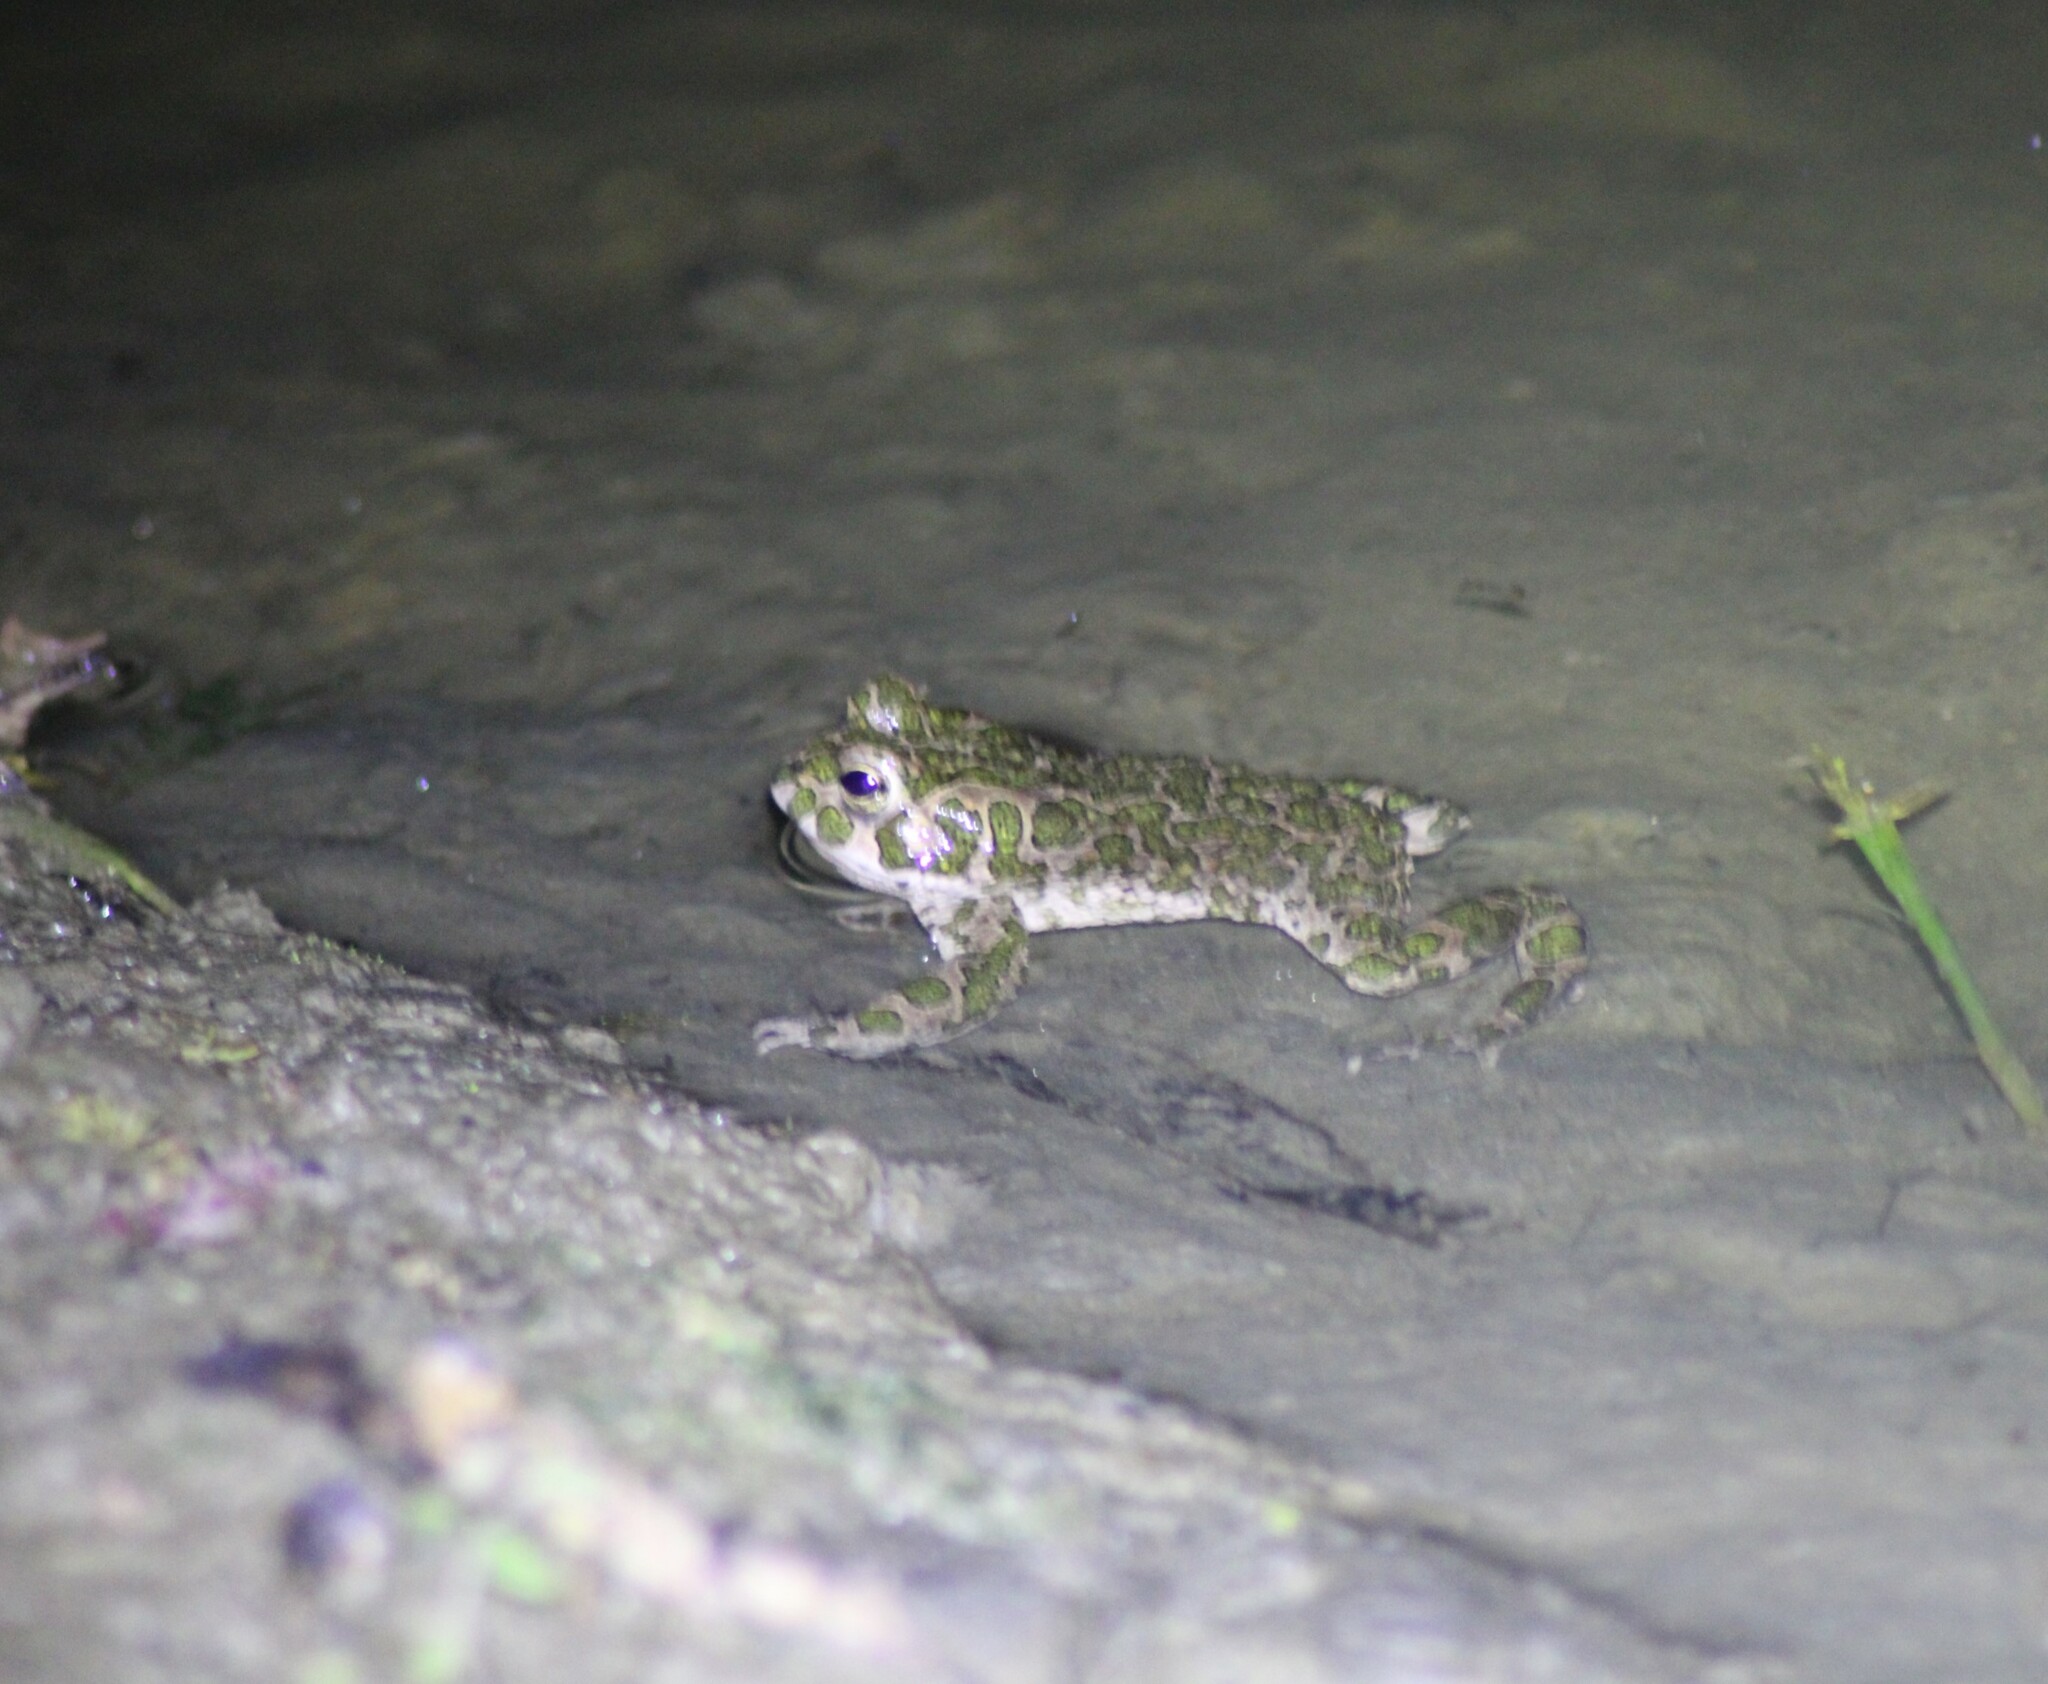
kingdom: Animalia
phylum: Chordata
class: Amphibia
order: Anura
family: Bufonidae
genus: Bufotes
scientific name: Bufotes viridis
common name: European green toad
